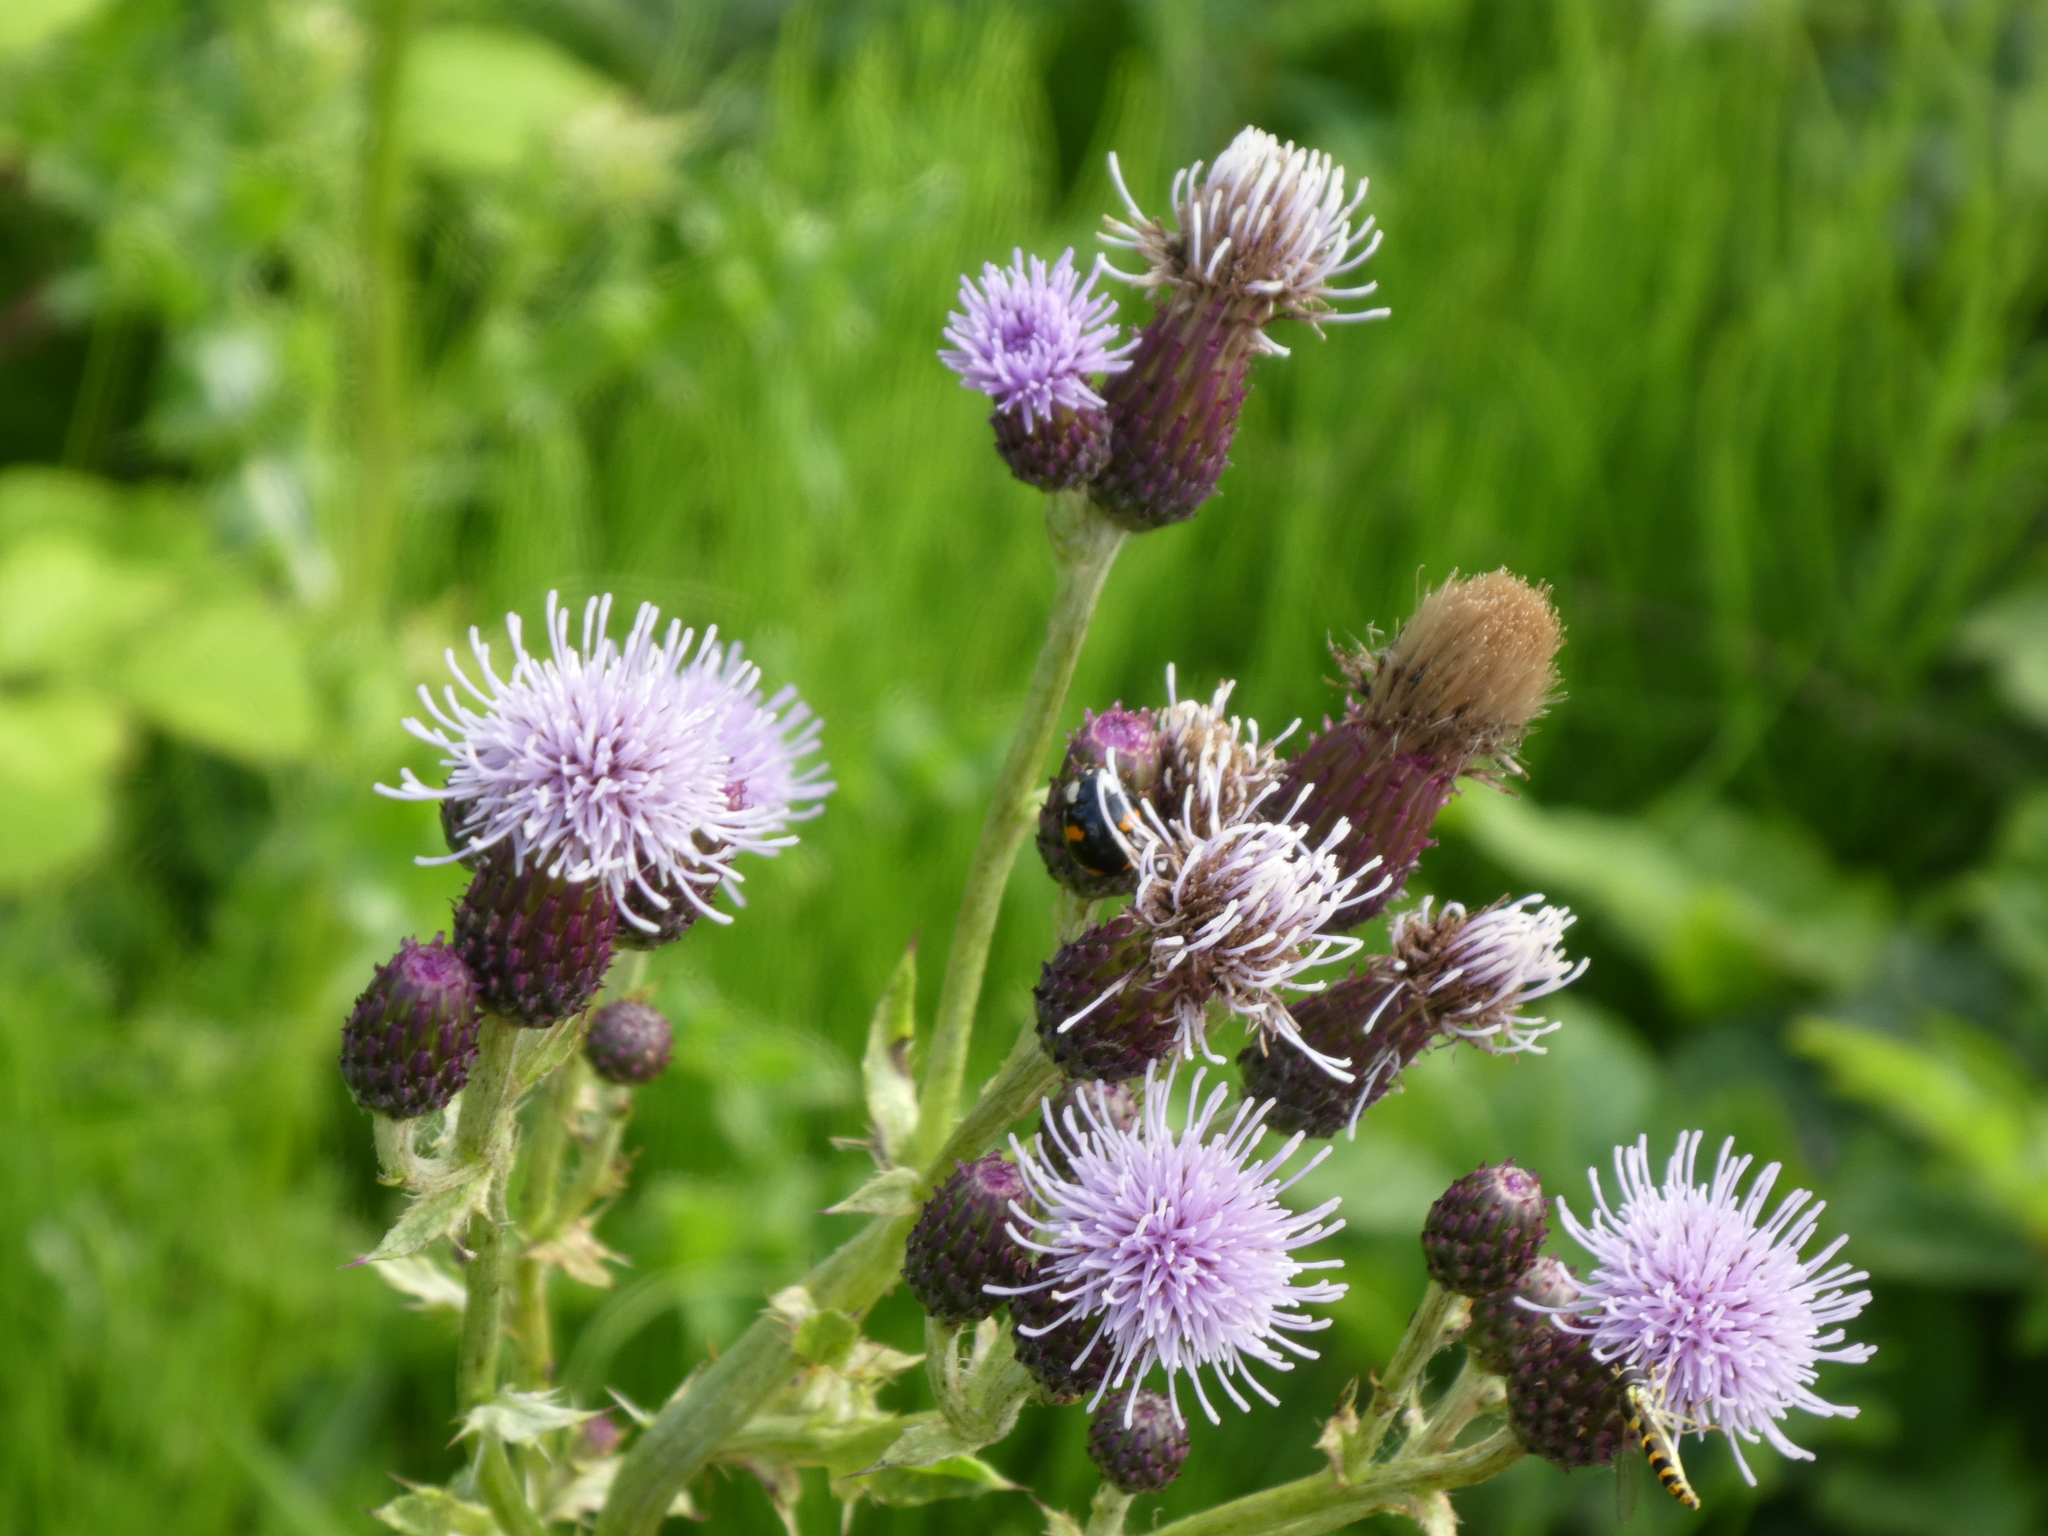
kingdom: Plantae
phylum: Tracheophyta
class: Magnoliopsida
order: Asterales
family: Asteraceae
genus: Cirsium
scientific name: Cirsium arvense
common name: Creeping thistle
